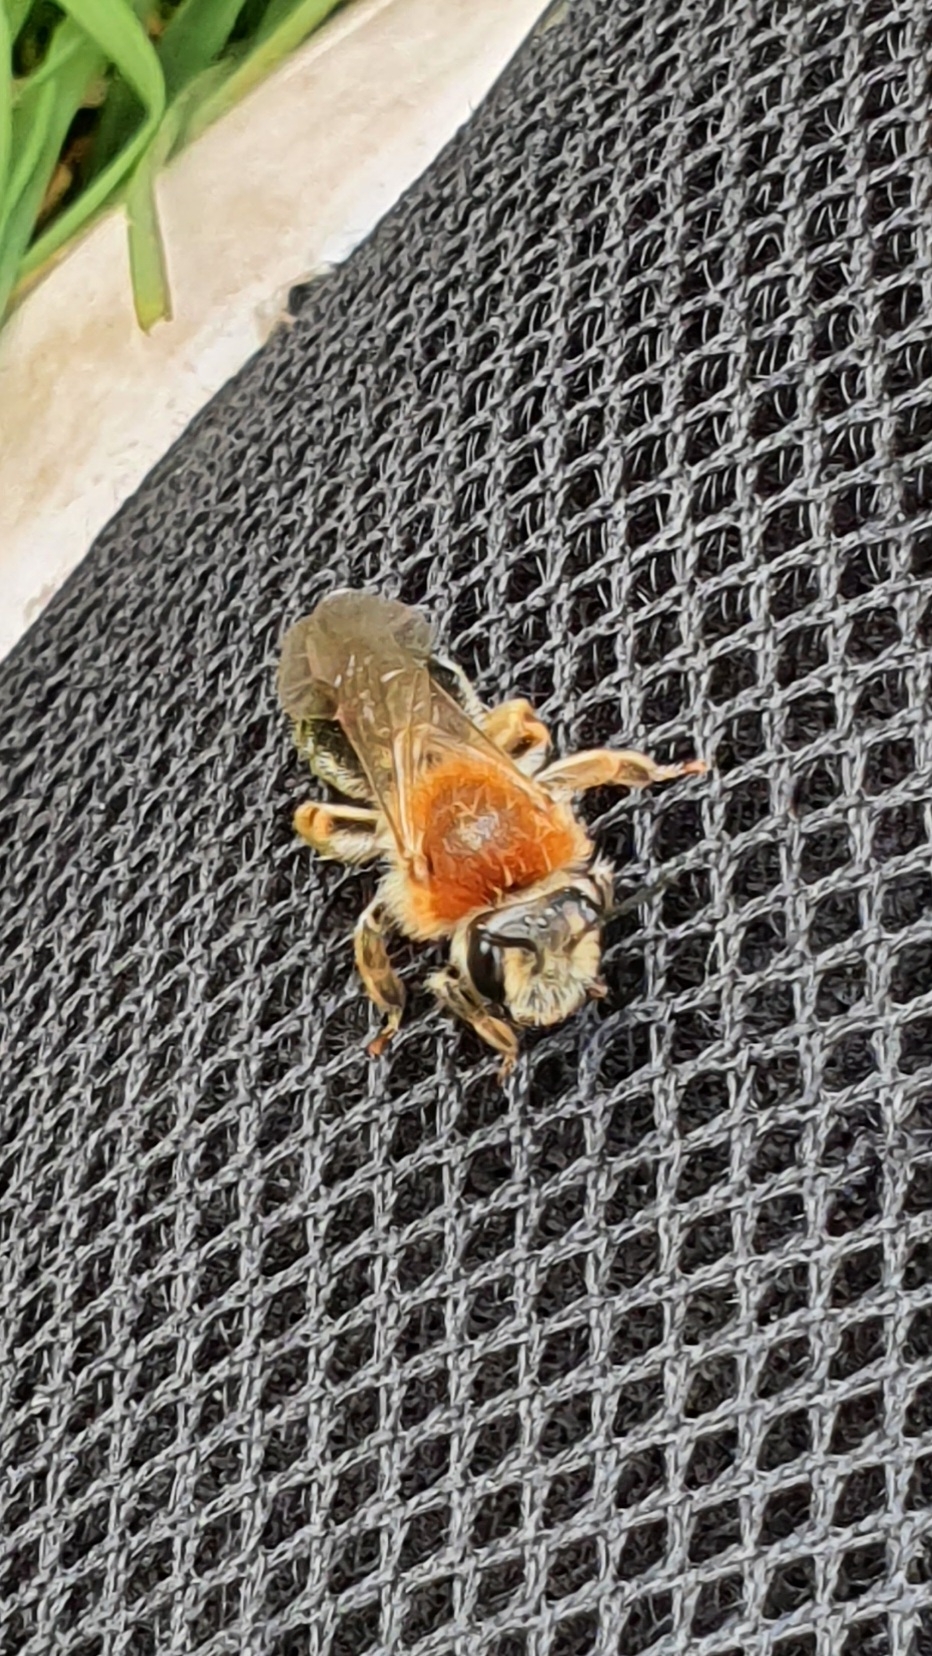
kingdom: Animalia
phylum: Arthropoda
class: Insecta
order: Hymenoptera
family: Andrenidae
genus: Andrena
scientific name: Andrena haemorrhoa
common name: Early mining bee
